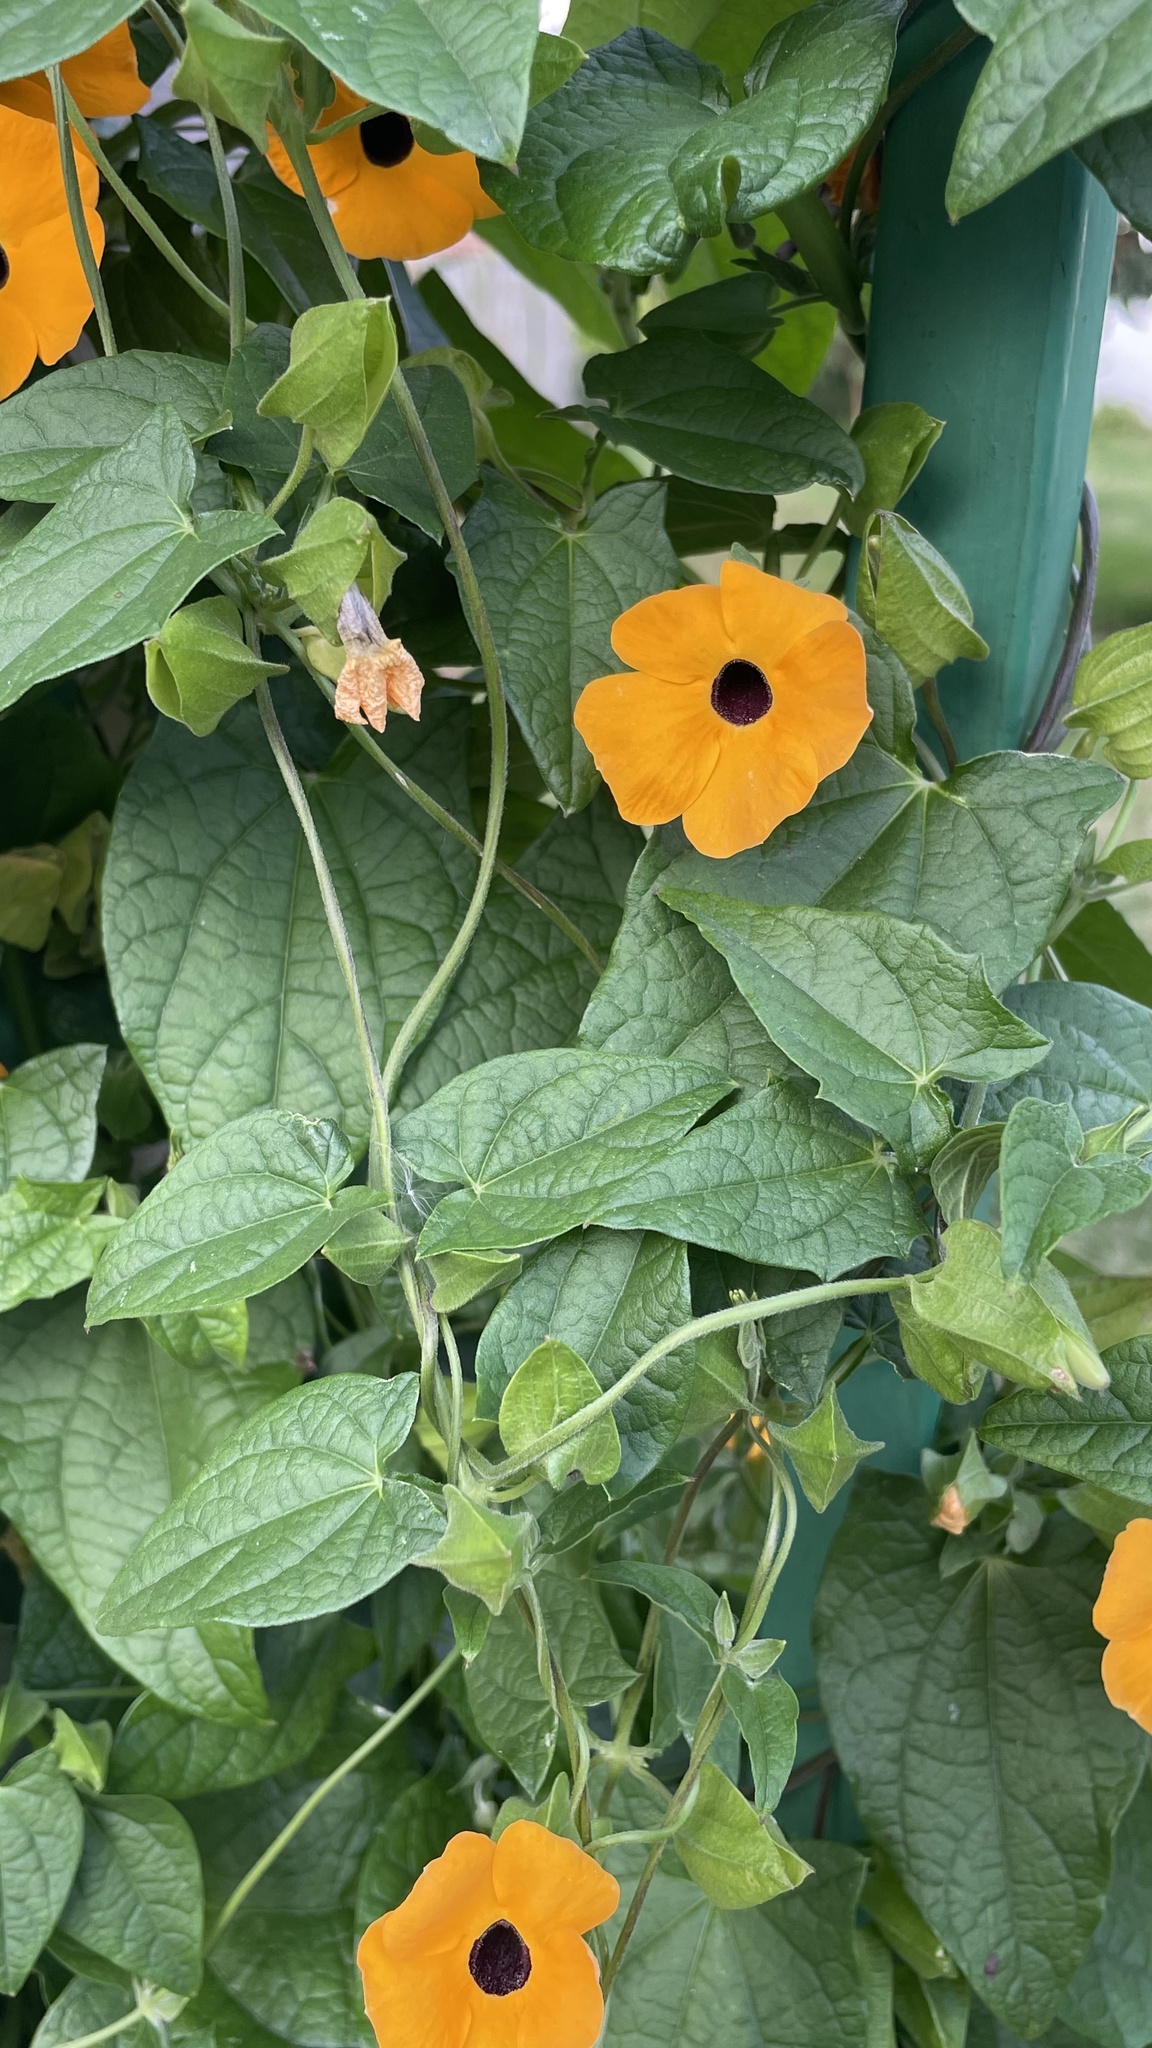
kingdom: Plantae
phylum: Tracheophyta
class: Magnoliopsida
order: Lamiales
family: Acanthaceae
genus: Thunbergia
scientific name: Thunbergia alata
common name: Blackeyed susan vine
